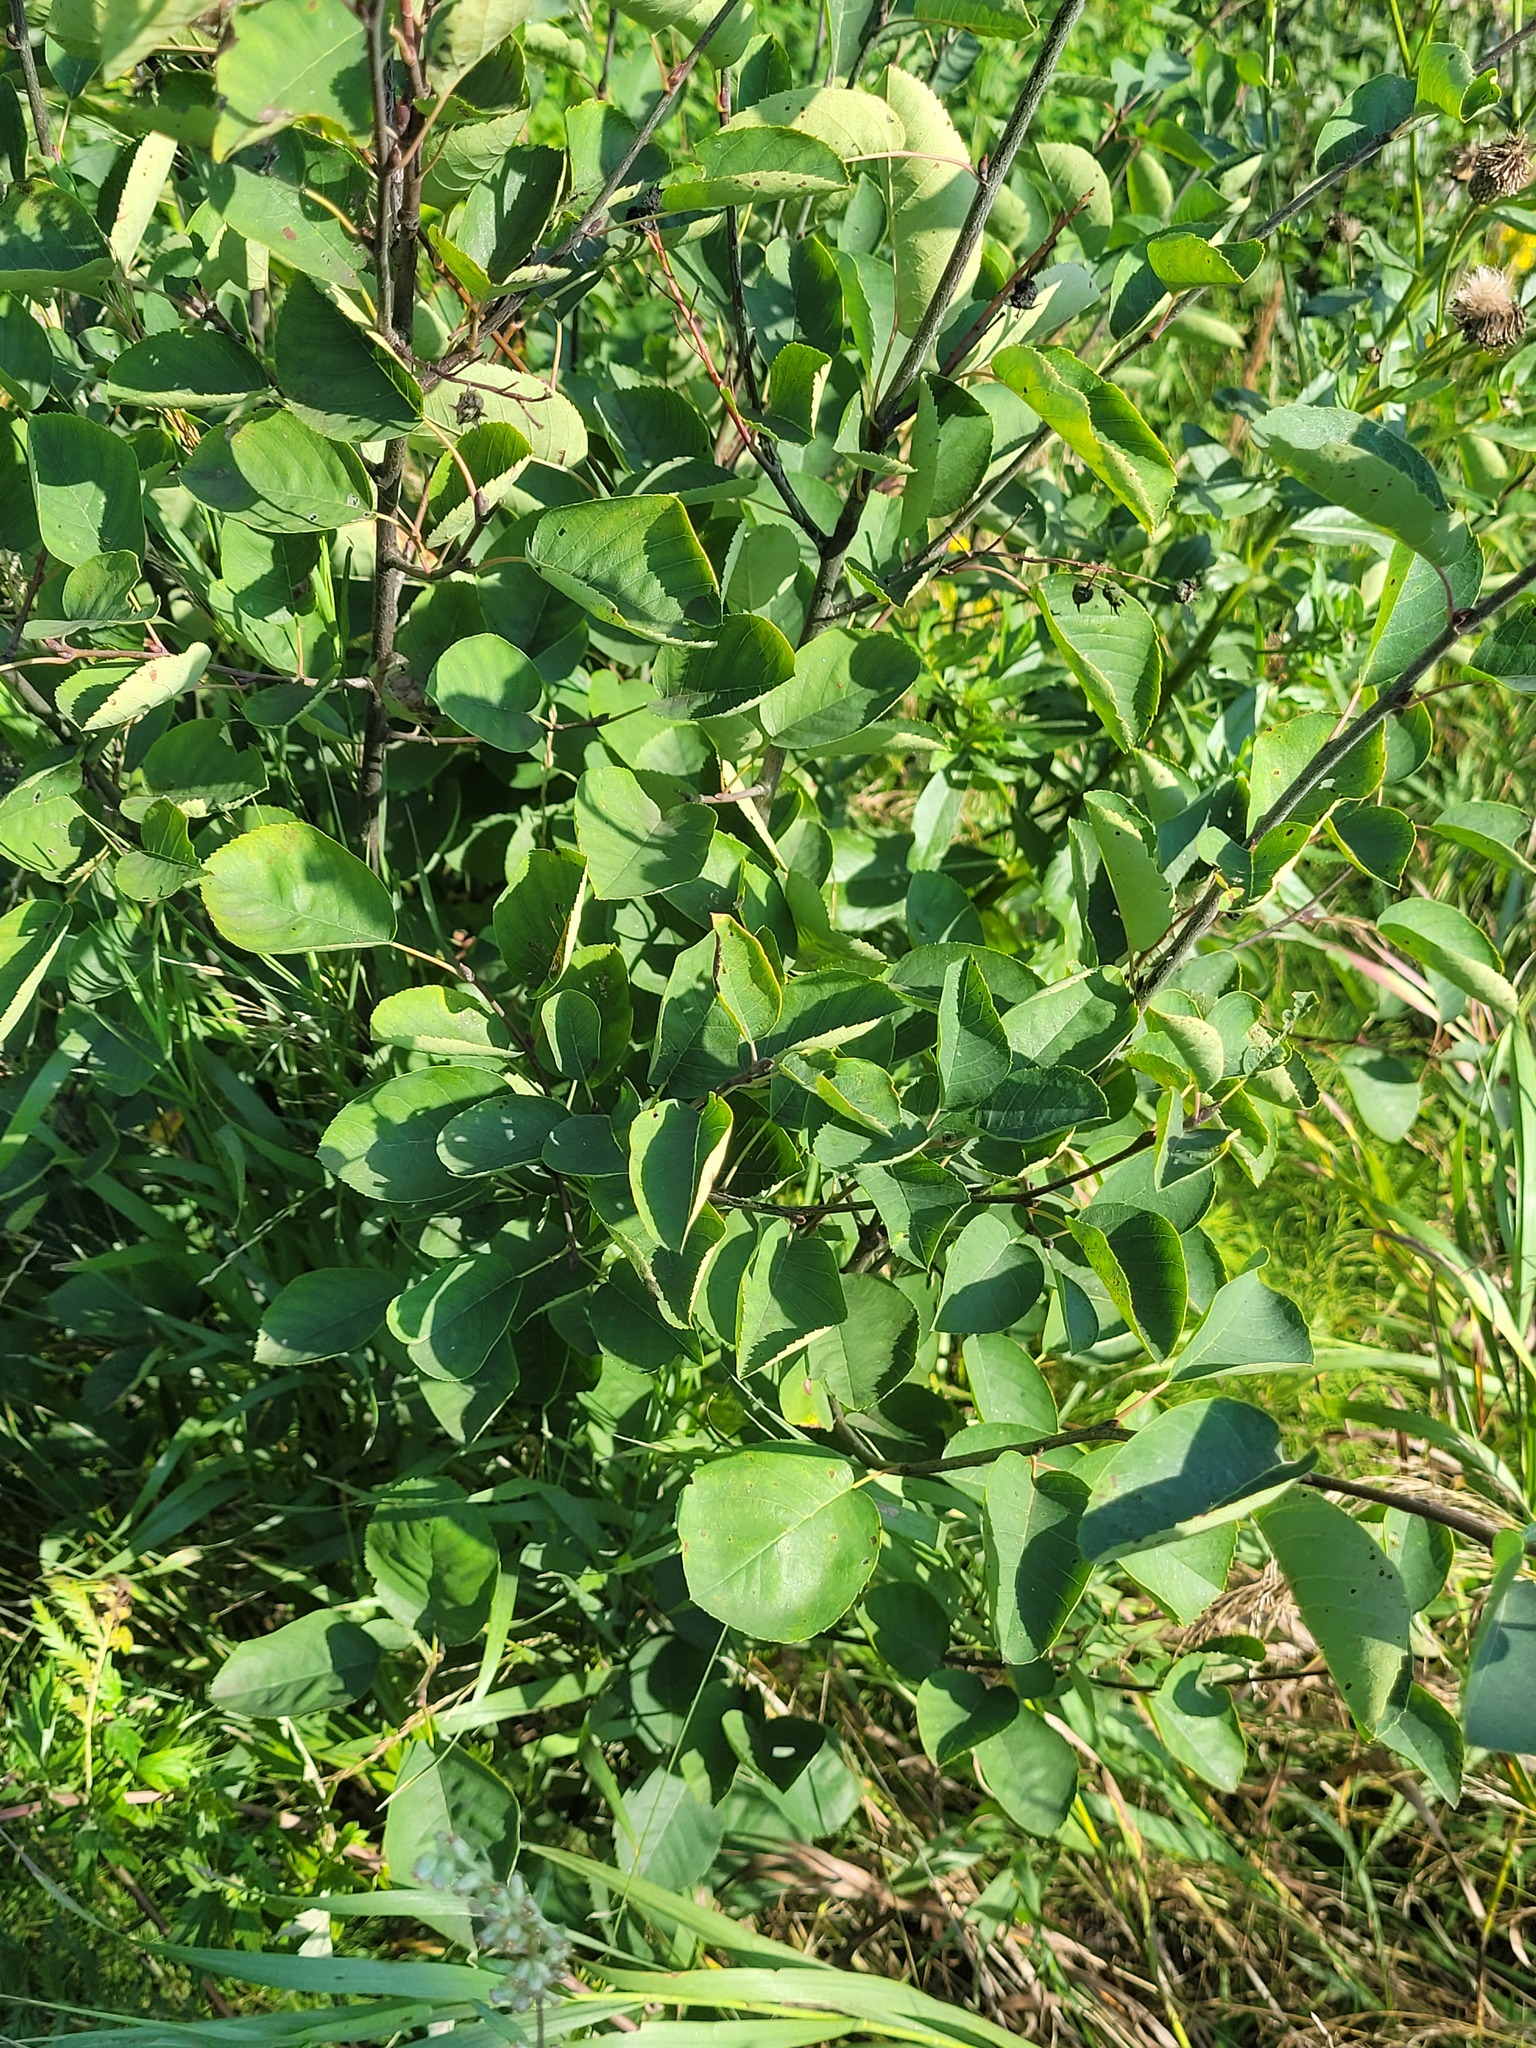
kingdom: Plantae
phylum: Tracheophyta
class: Magnoliopsida
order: Rosales
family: Rosaceae
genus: Amelanchier
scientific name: Amelanchier
